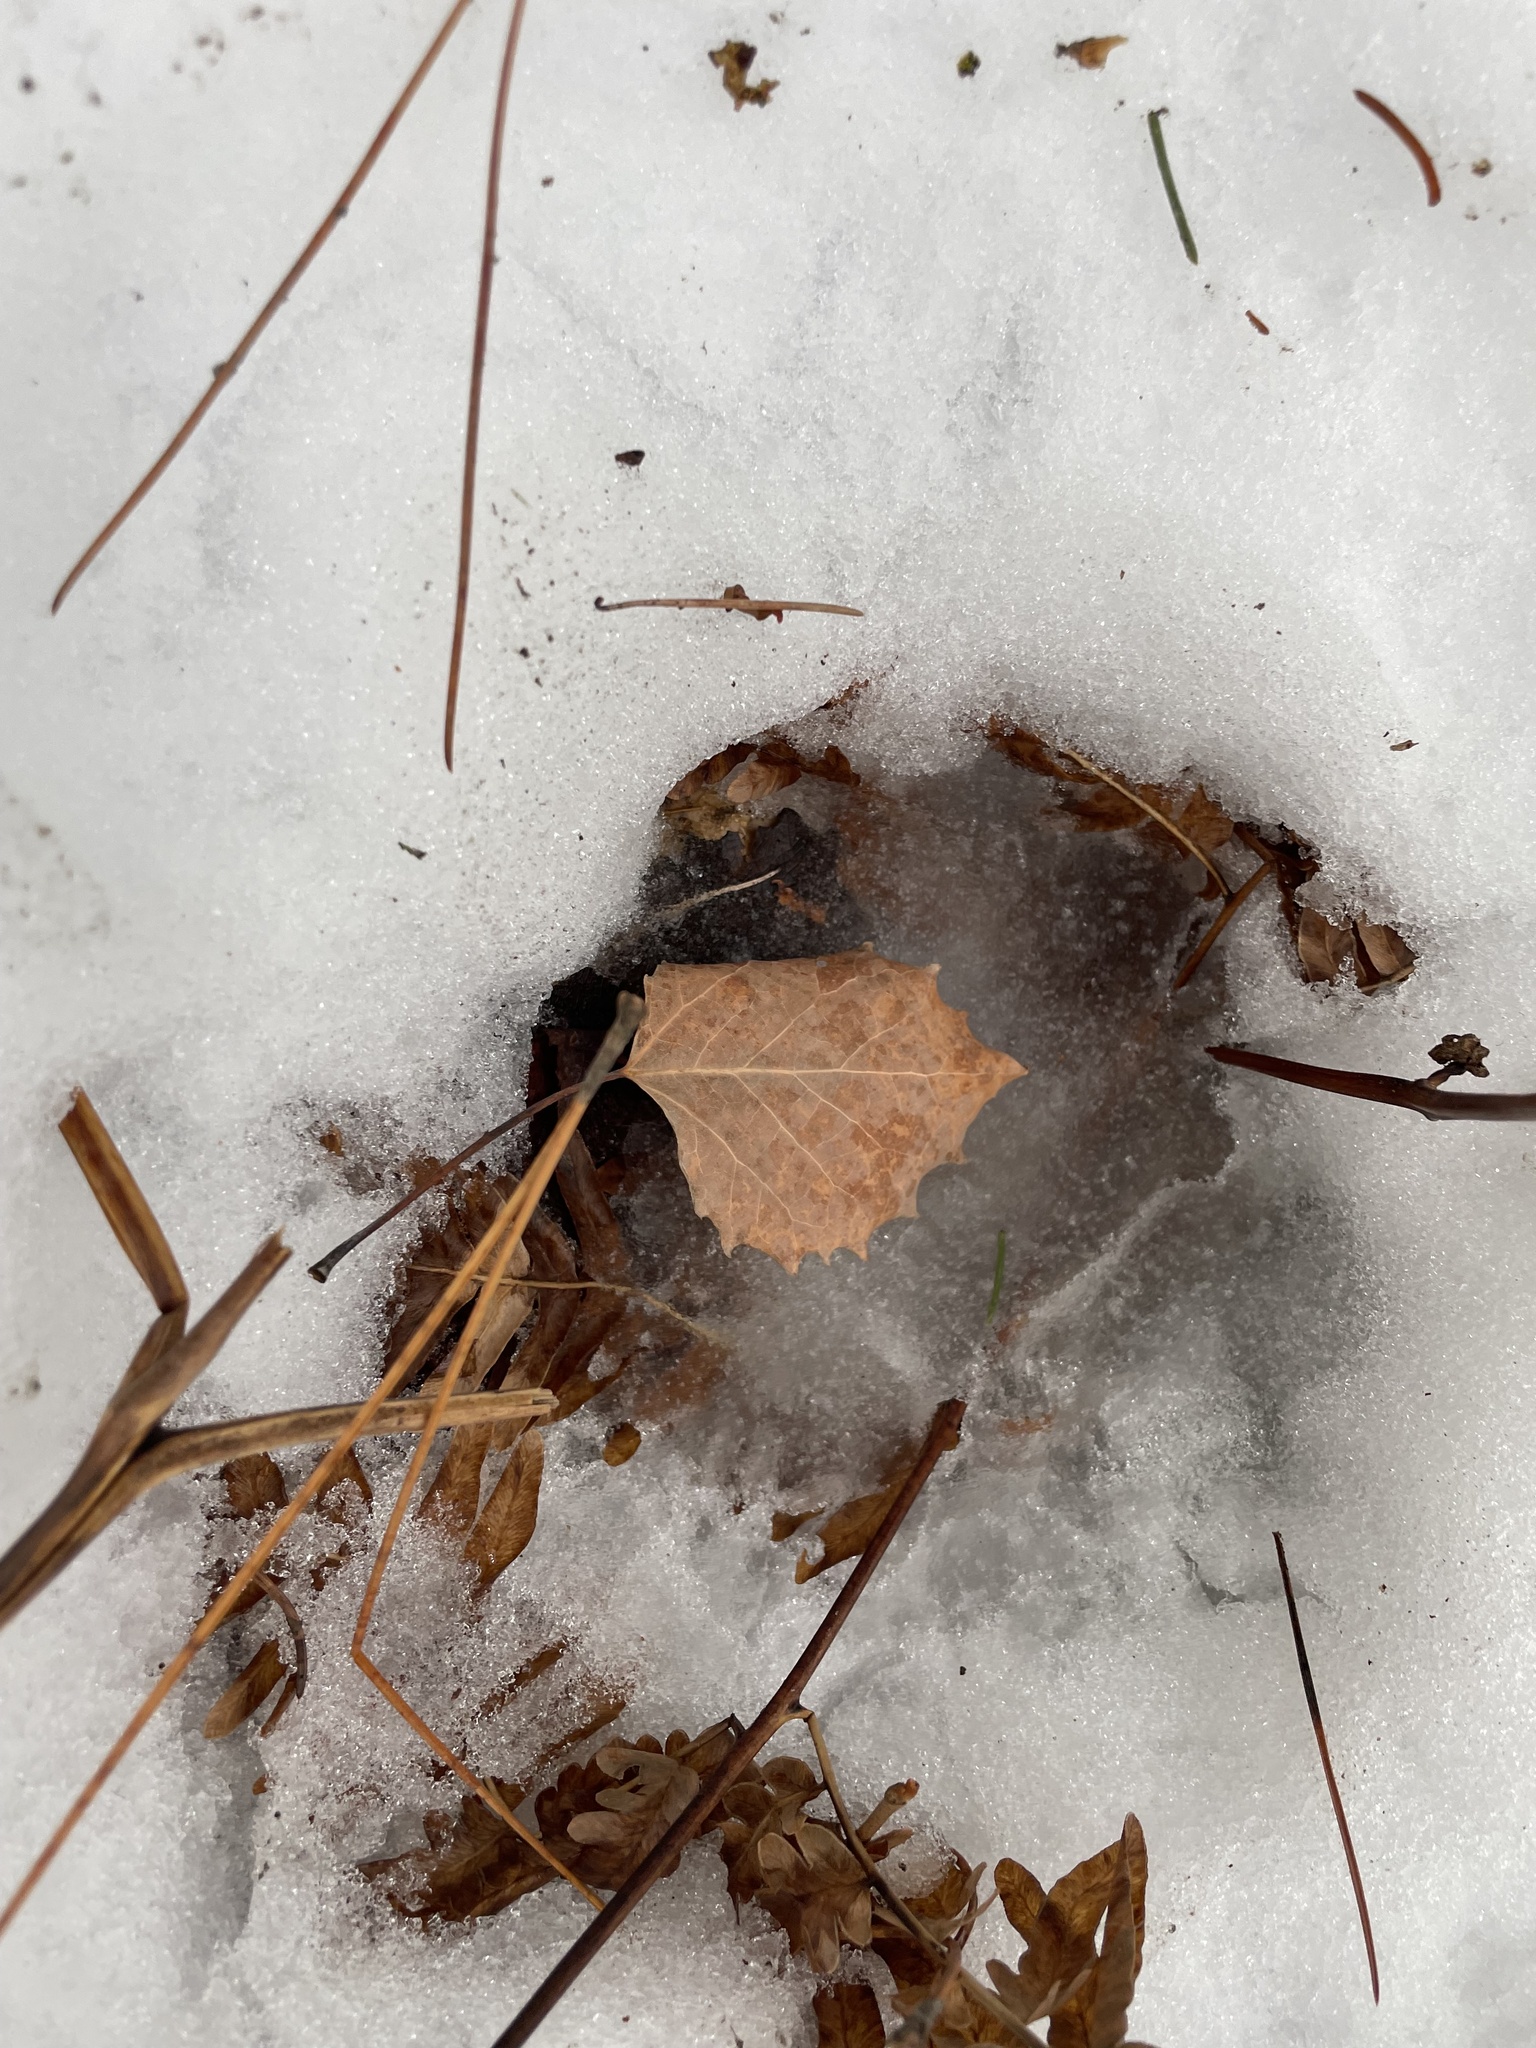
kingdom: Plantae
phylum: Tracheophyta
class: Magnoliopsida
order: Malpighiales
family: Salicaceae
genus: Populus
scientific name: Populus grandidentata
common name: Bigtooth aspen
